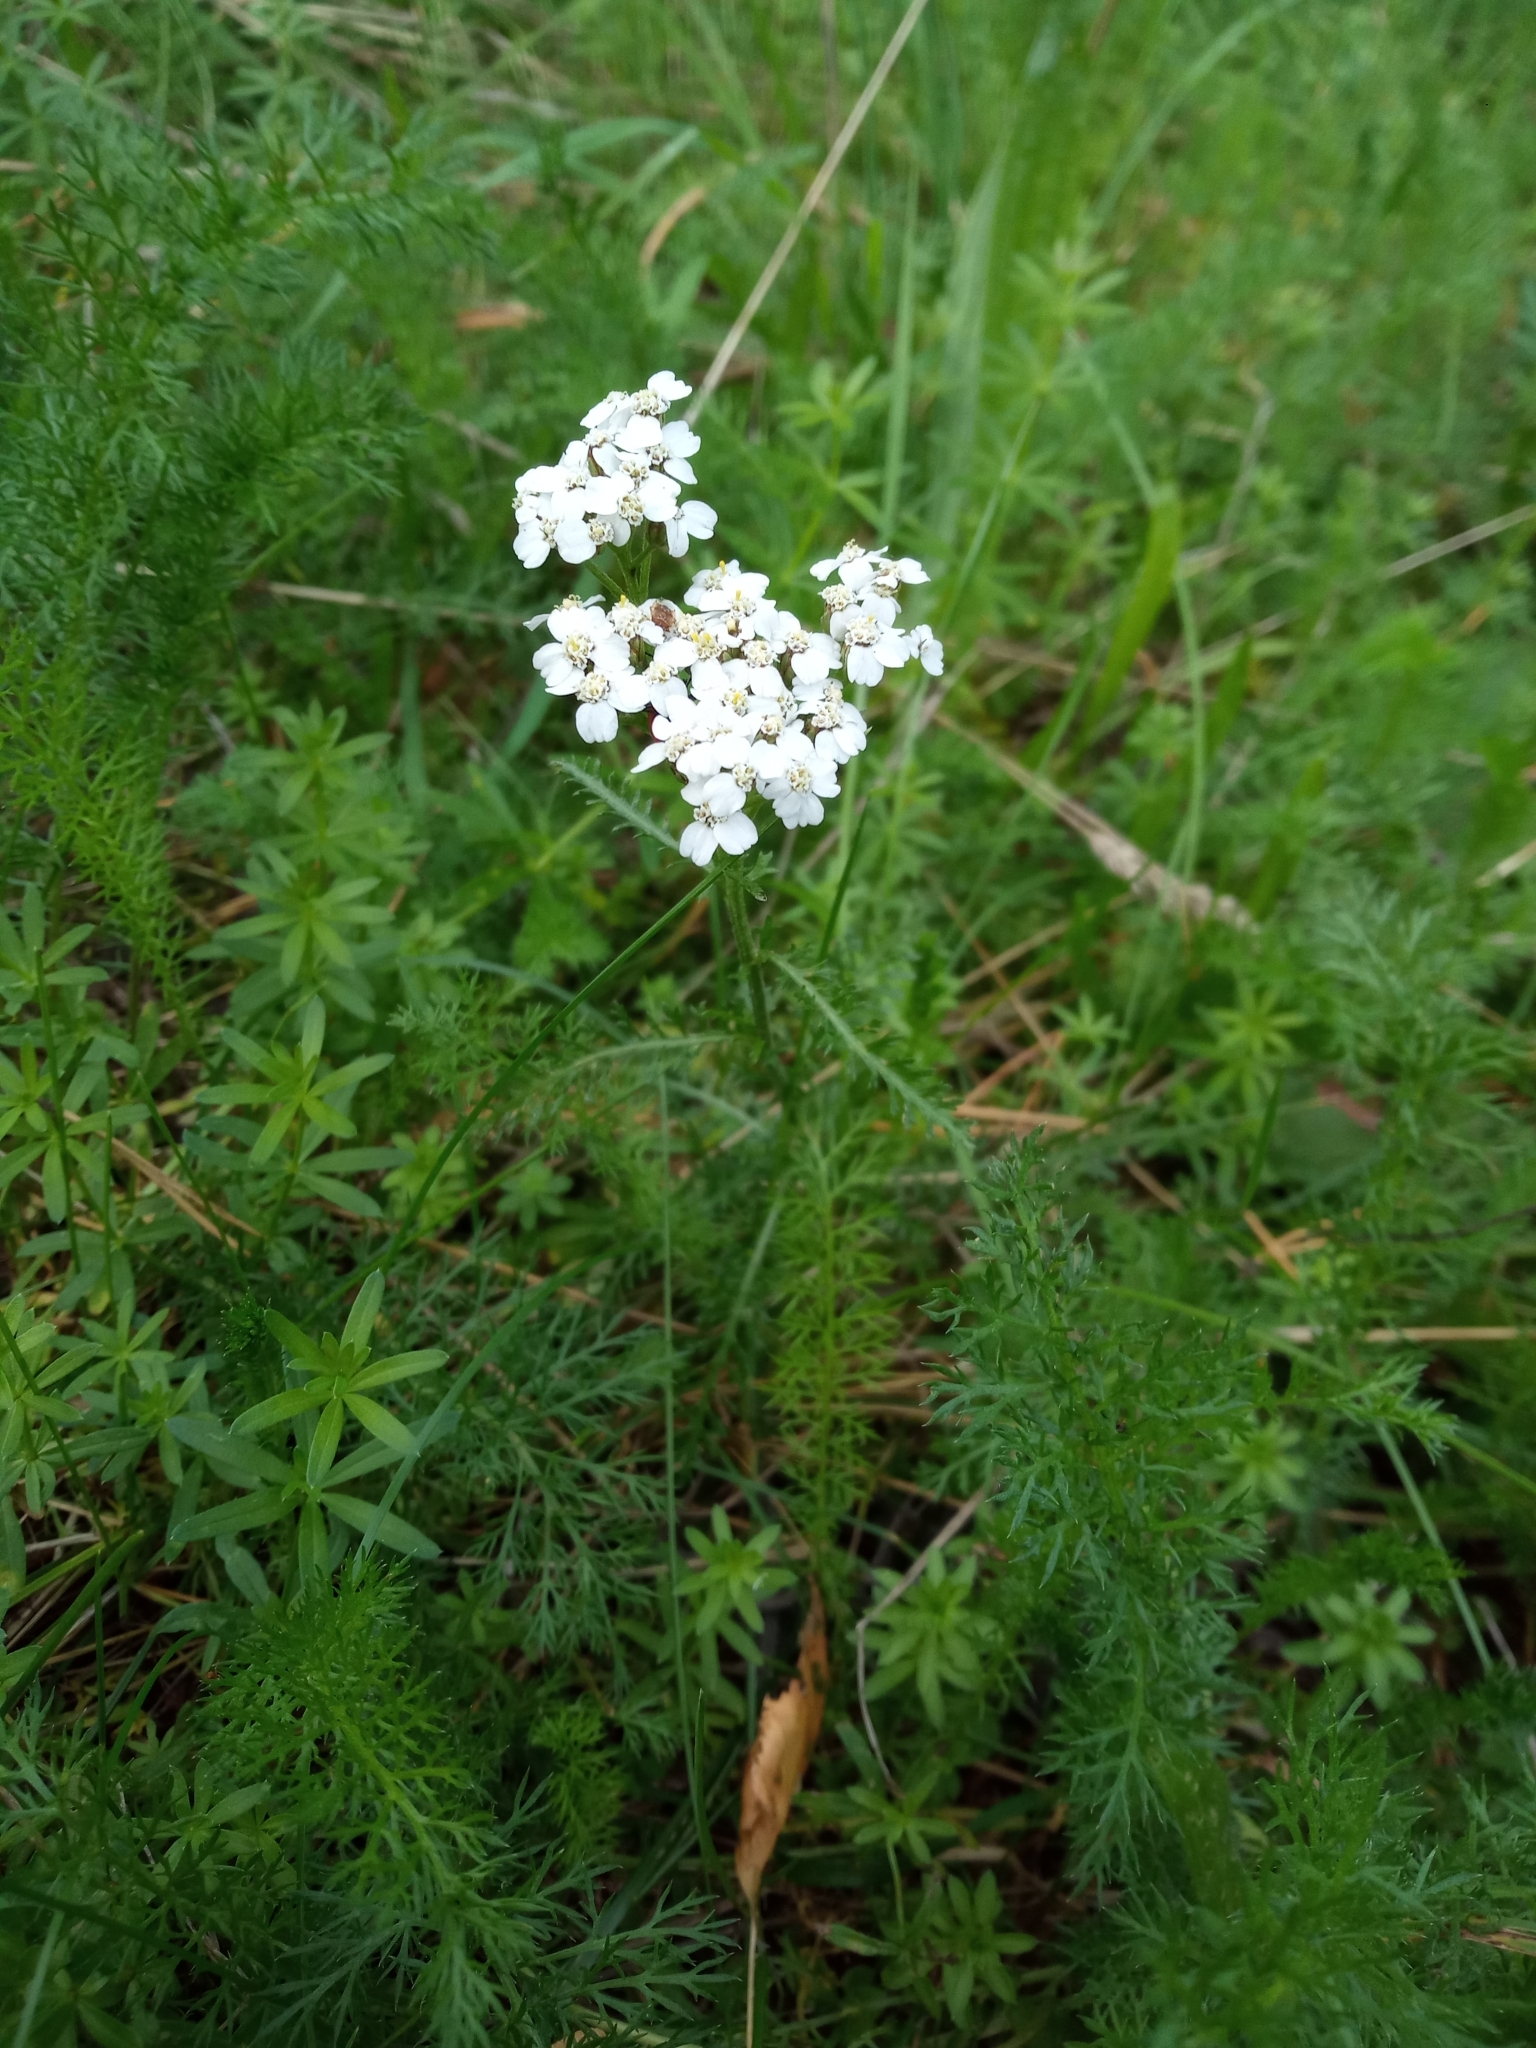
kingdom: Plantae
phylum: Tracheophyta
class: Magnoliopsida
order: Asterales
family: Asteraceae
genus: Achillea
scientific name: Achillea millefolium
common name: Yarrow
